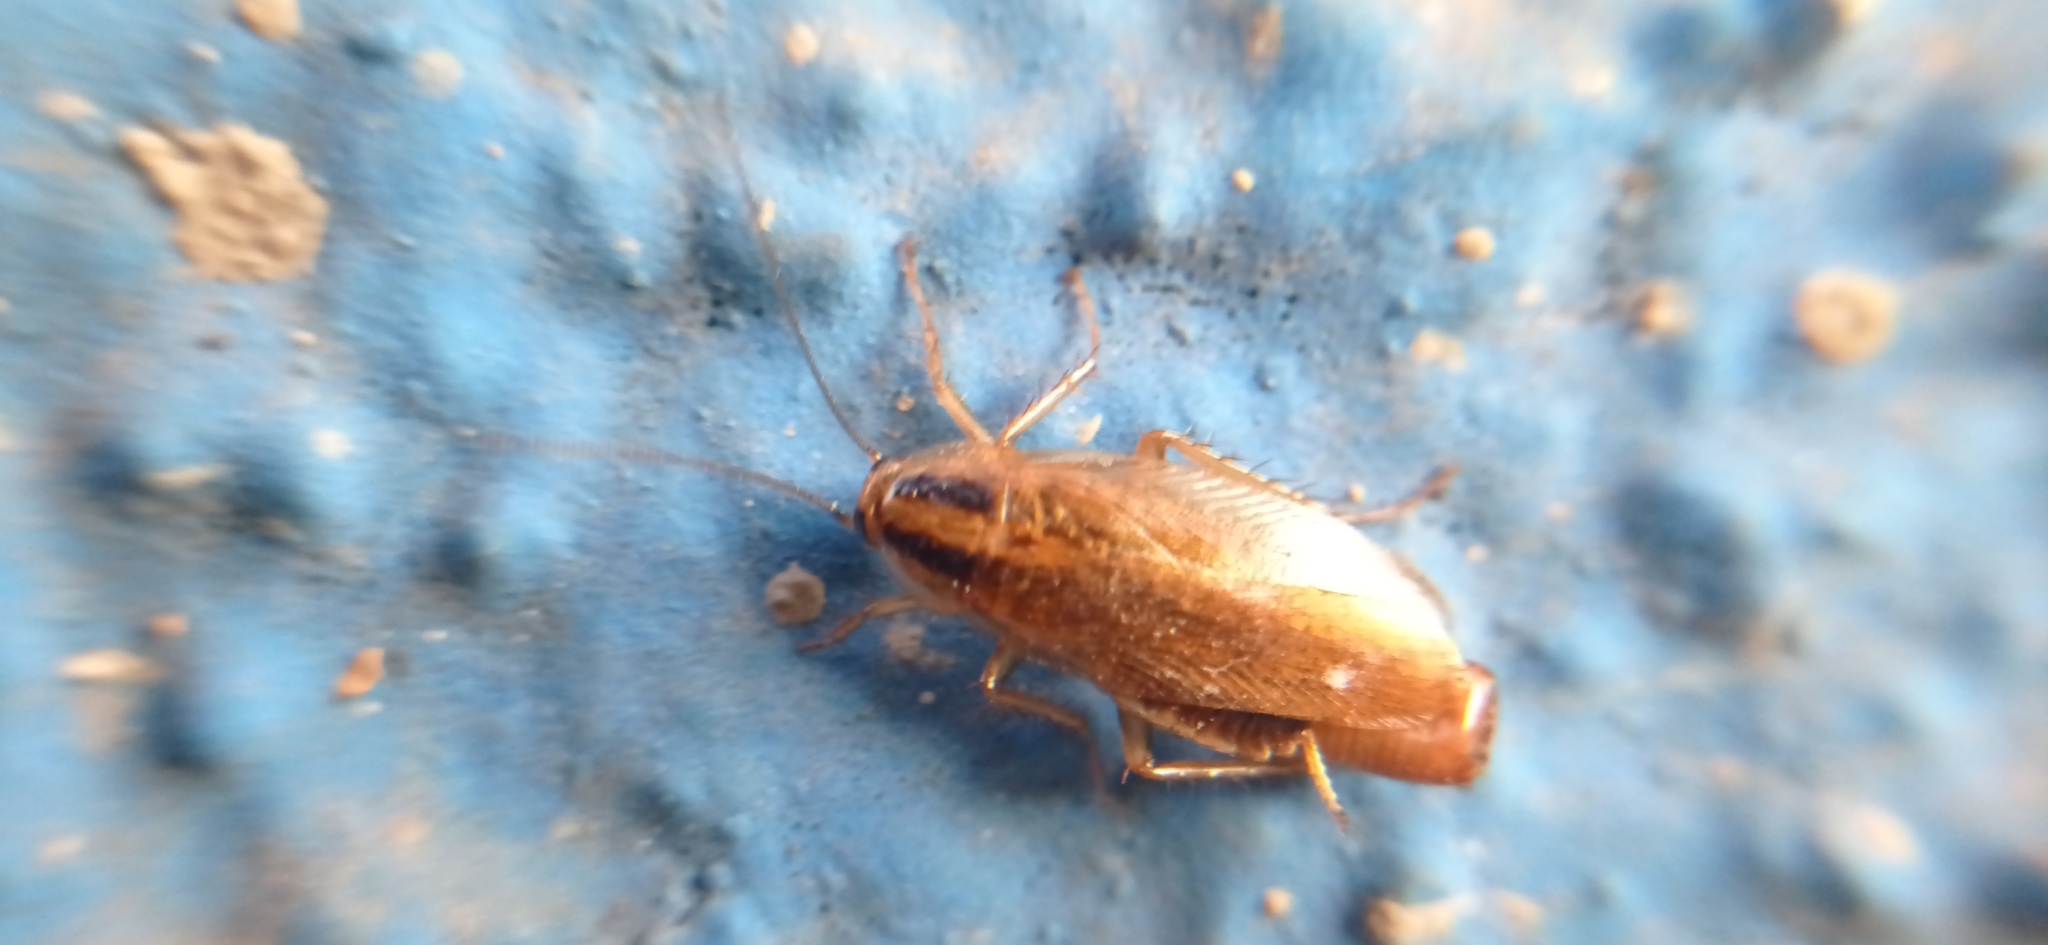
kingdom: Animalia
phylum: Arthropoda
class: Insecta
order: Blattodea
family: Ectobiidae
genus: Blattella
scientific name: Blattella germanica
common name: German cockroach
